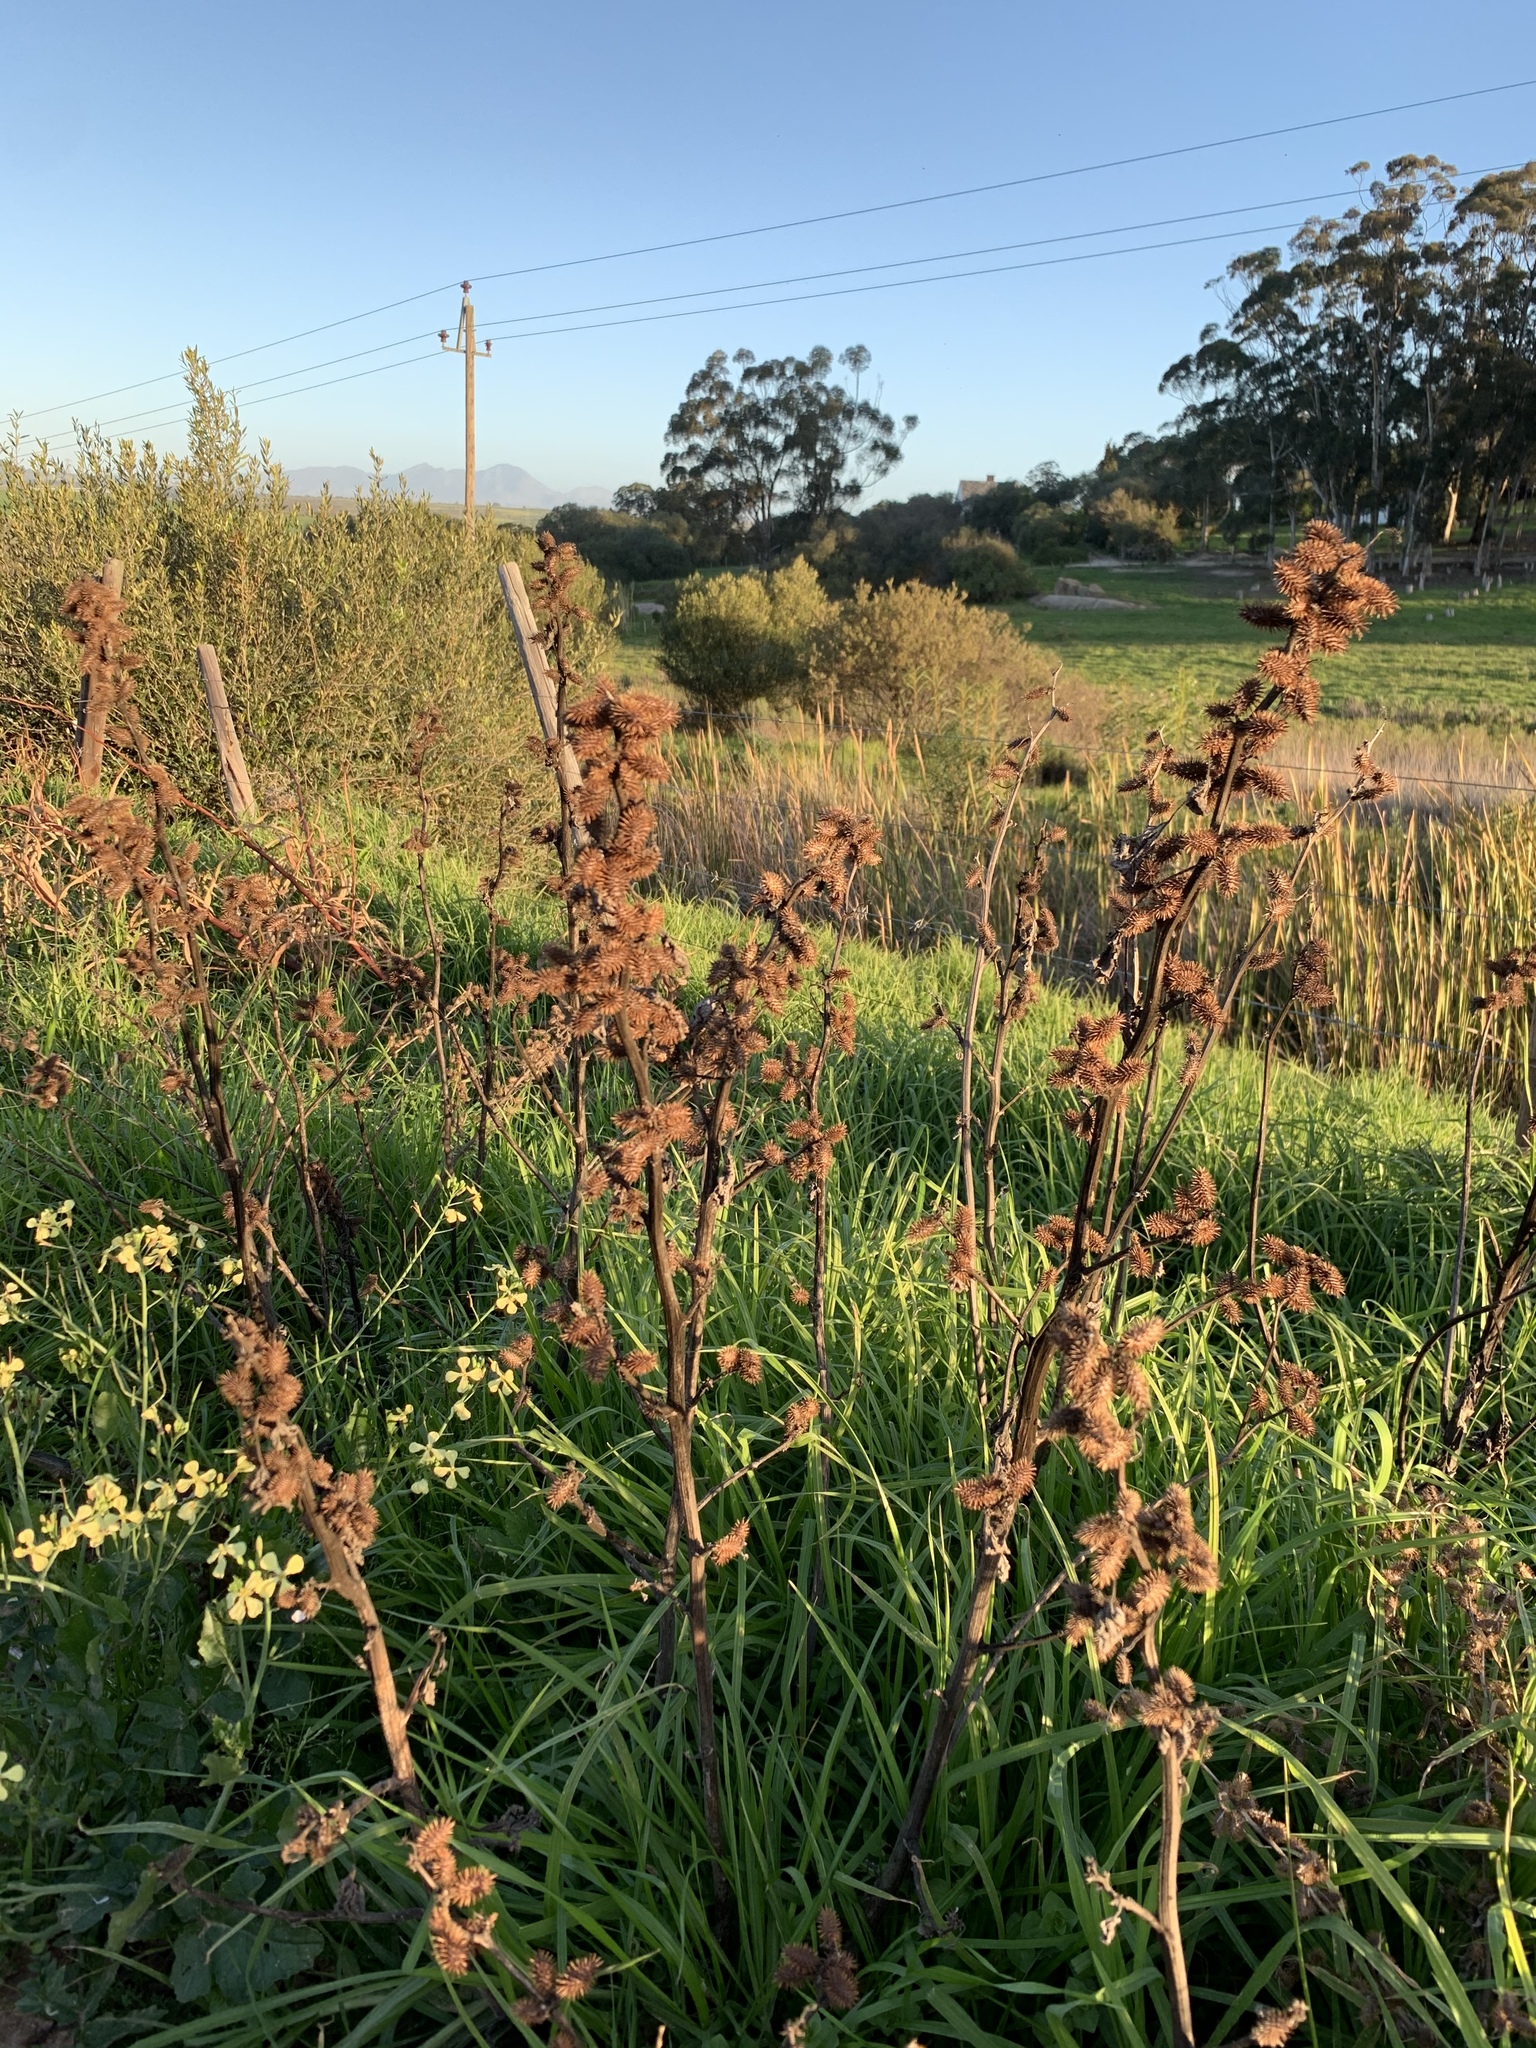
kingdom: Plantae
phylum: Tracheophyta
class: Magnoliopsida
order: Asterales
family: Asteraceae
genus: Xanthium
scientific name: Xanthium strumarium
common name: Rough cocklebur
